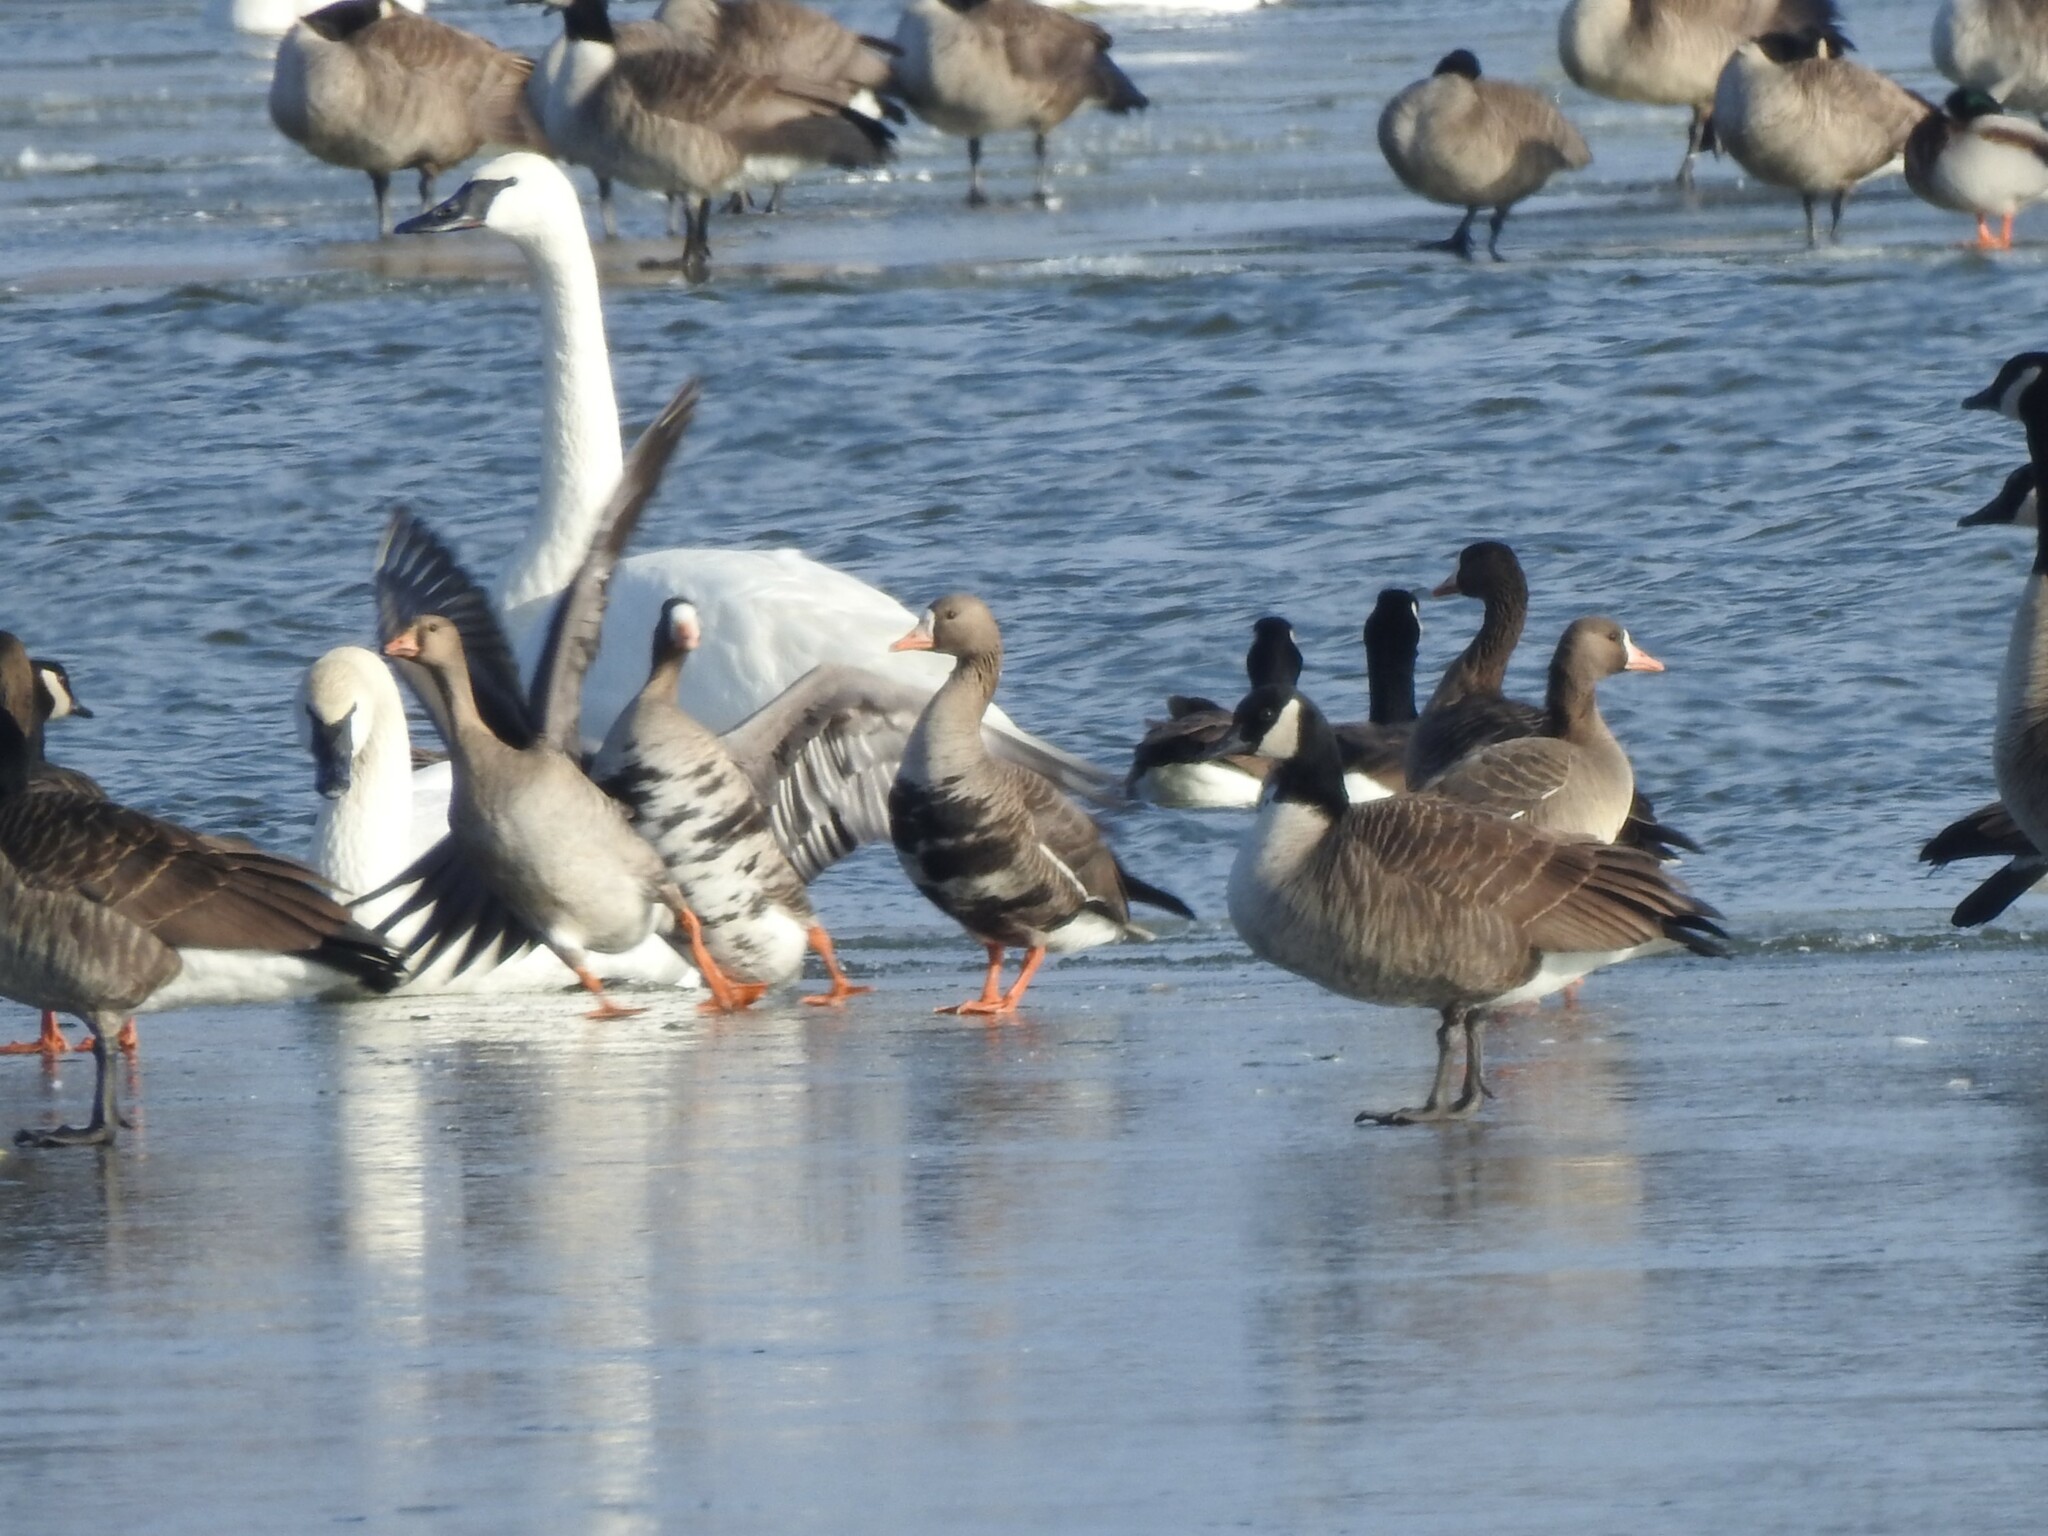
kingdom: Animalia
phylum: Chordata
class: Aves
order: Anseriformes
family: Anatidae
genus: Anser
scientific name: Anser albifrons
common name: Greater white-fronted goose
